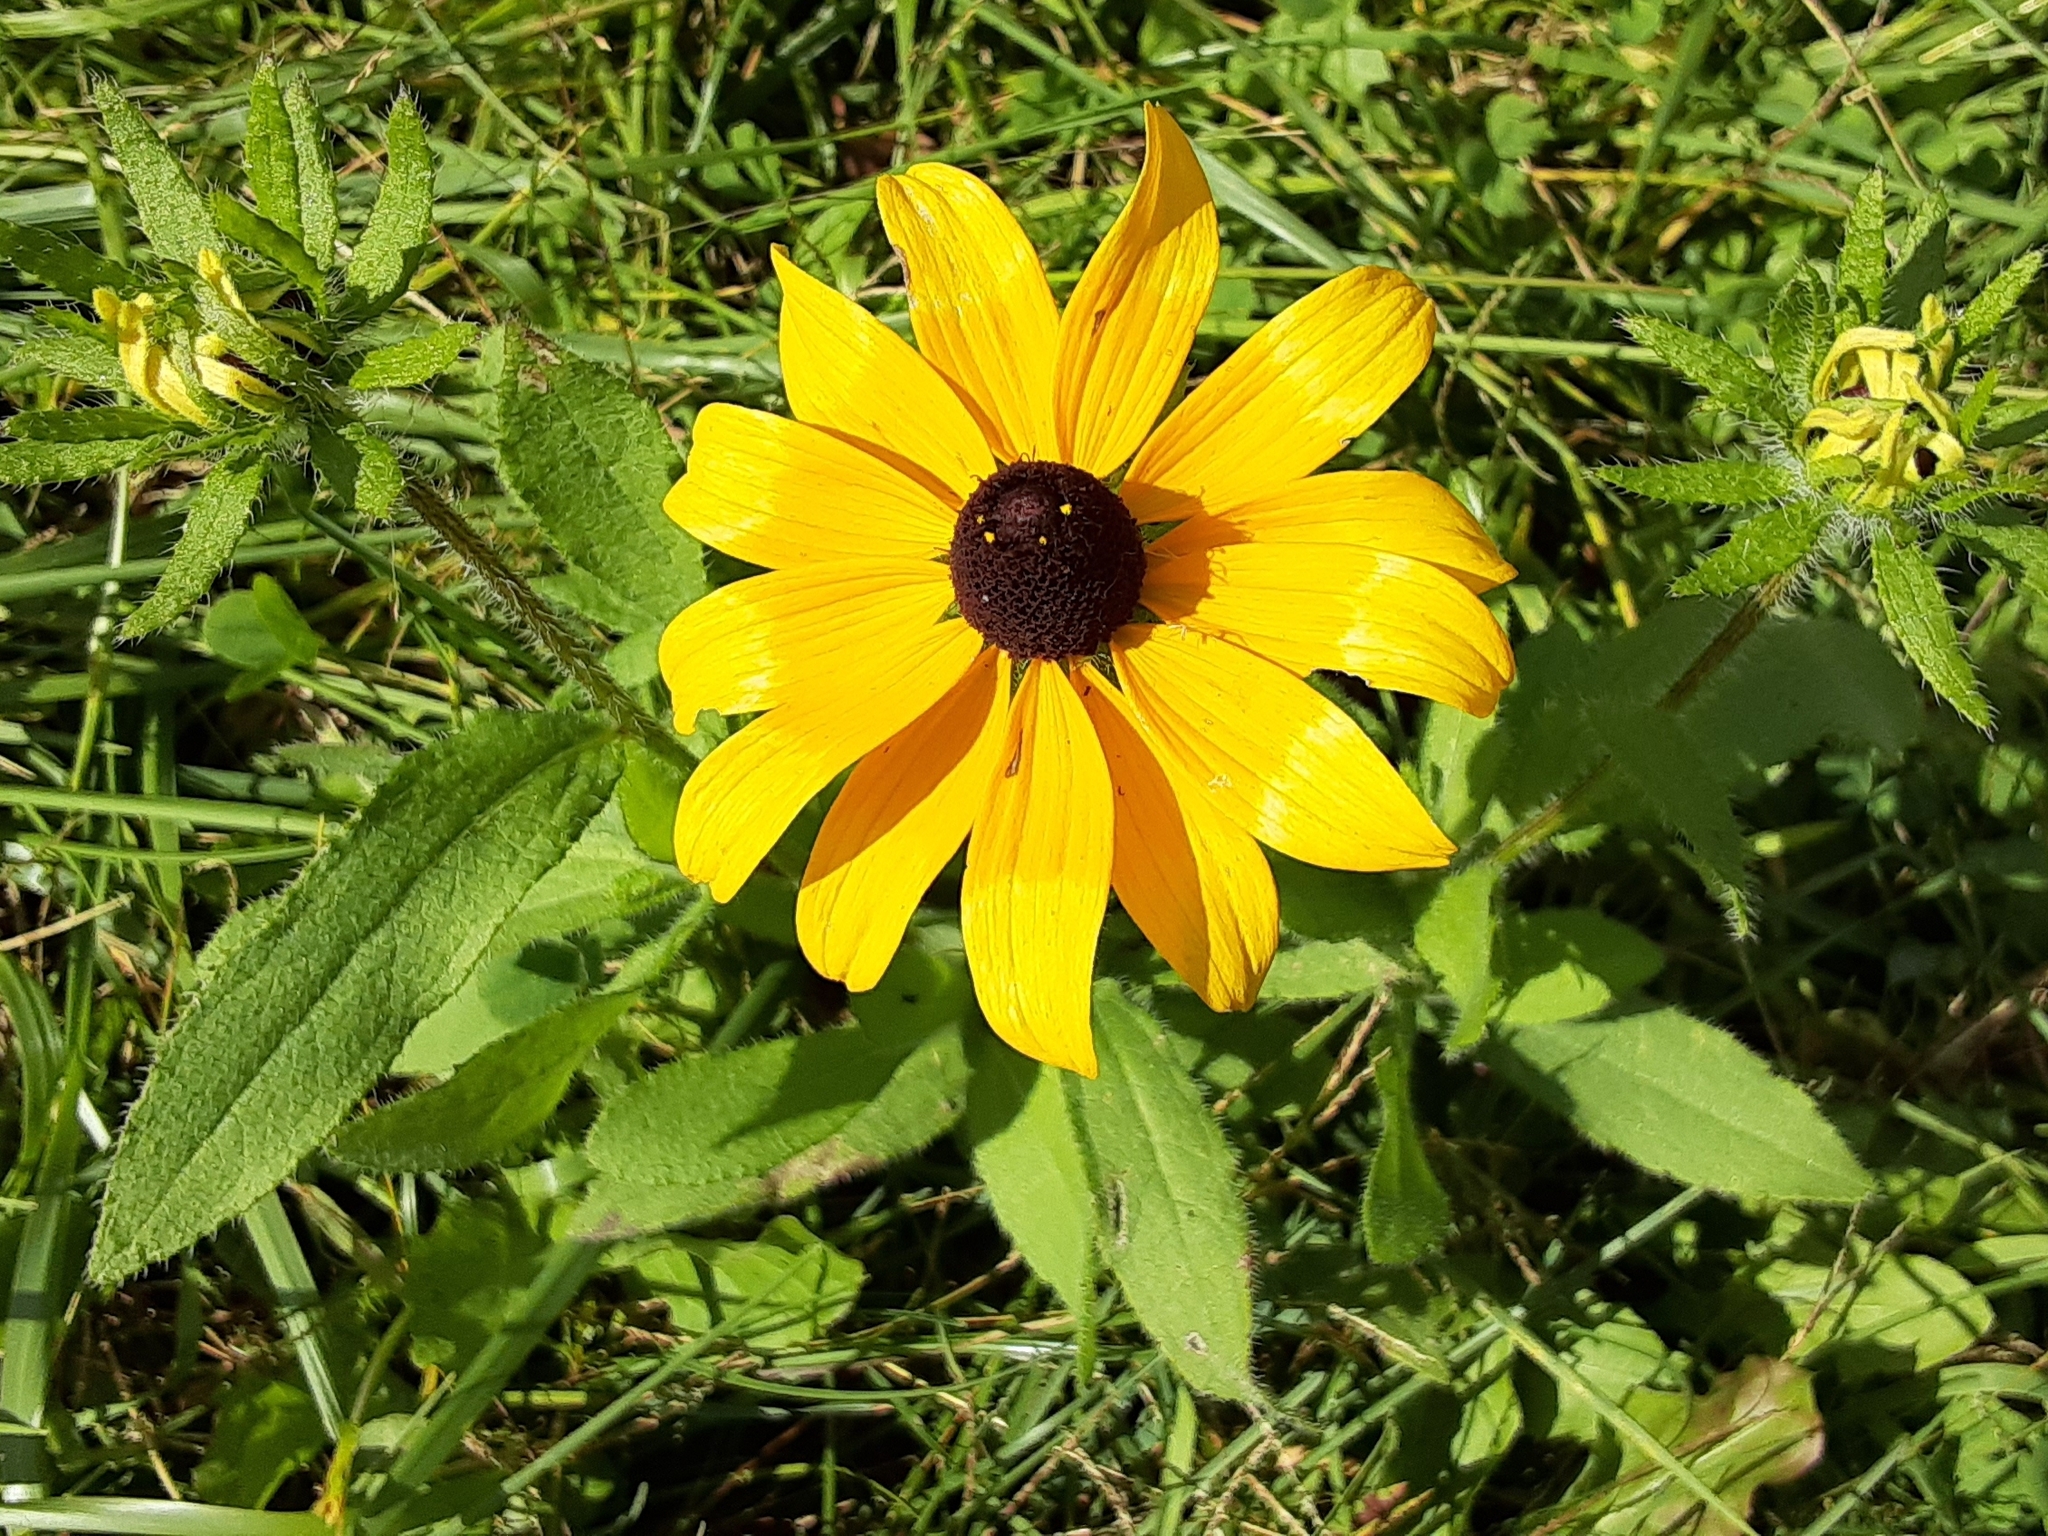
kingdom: Plantae
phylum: Tracheophyta
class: Magnoliopsida
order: Asterales
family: Asteraceae
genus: Rudbeckia
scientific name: Rudbeckia hirta
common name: Black-eyed-susan
